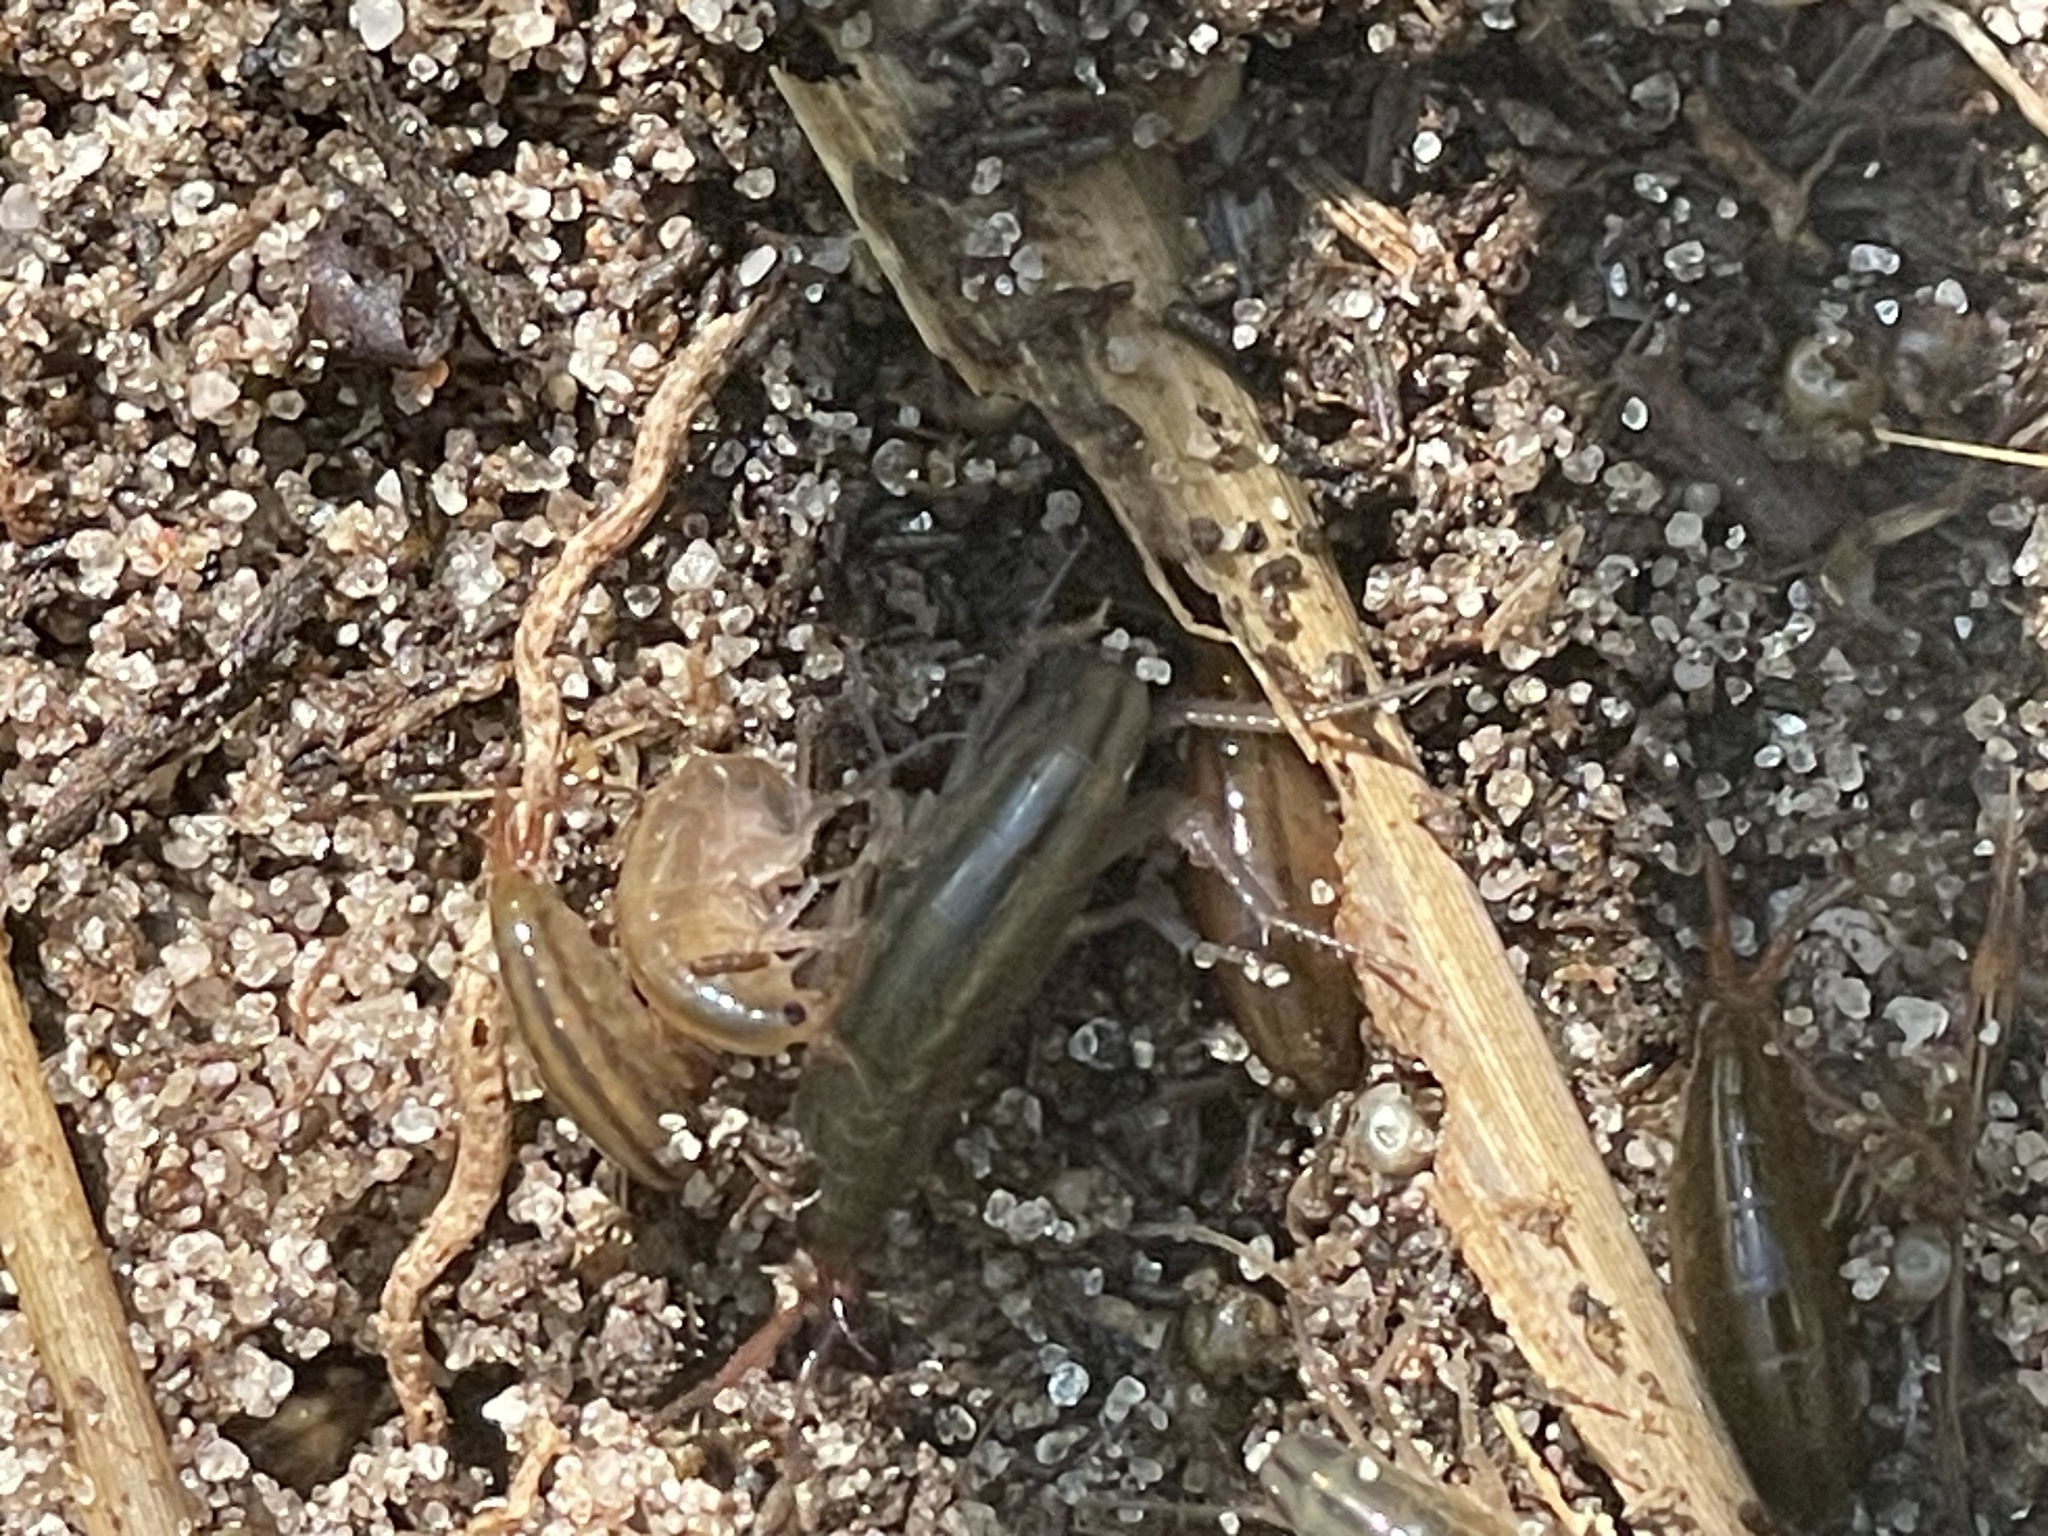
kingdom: Animalia
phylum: Arthropoda
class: Malacostraca
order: Amphipoda
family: Talitridae
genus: Speziorchestia
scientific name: Speziorchestia grillus
